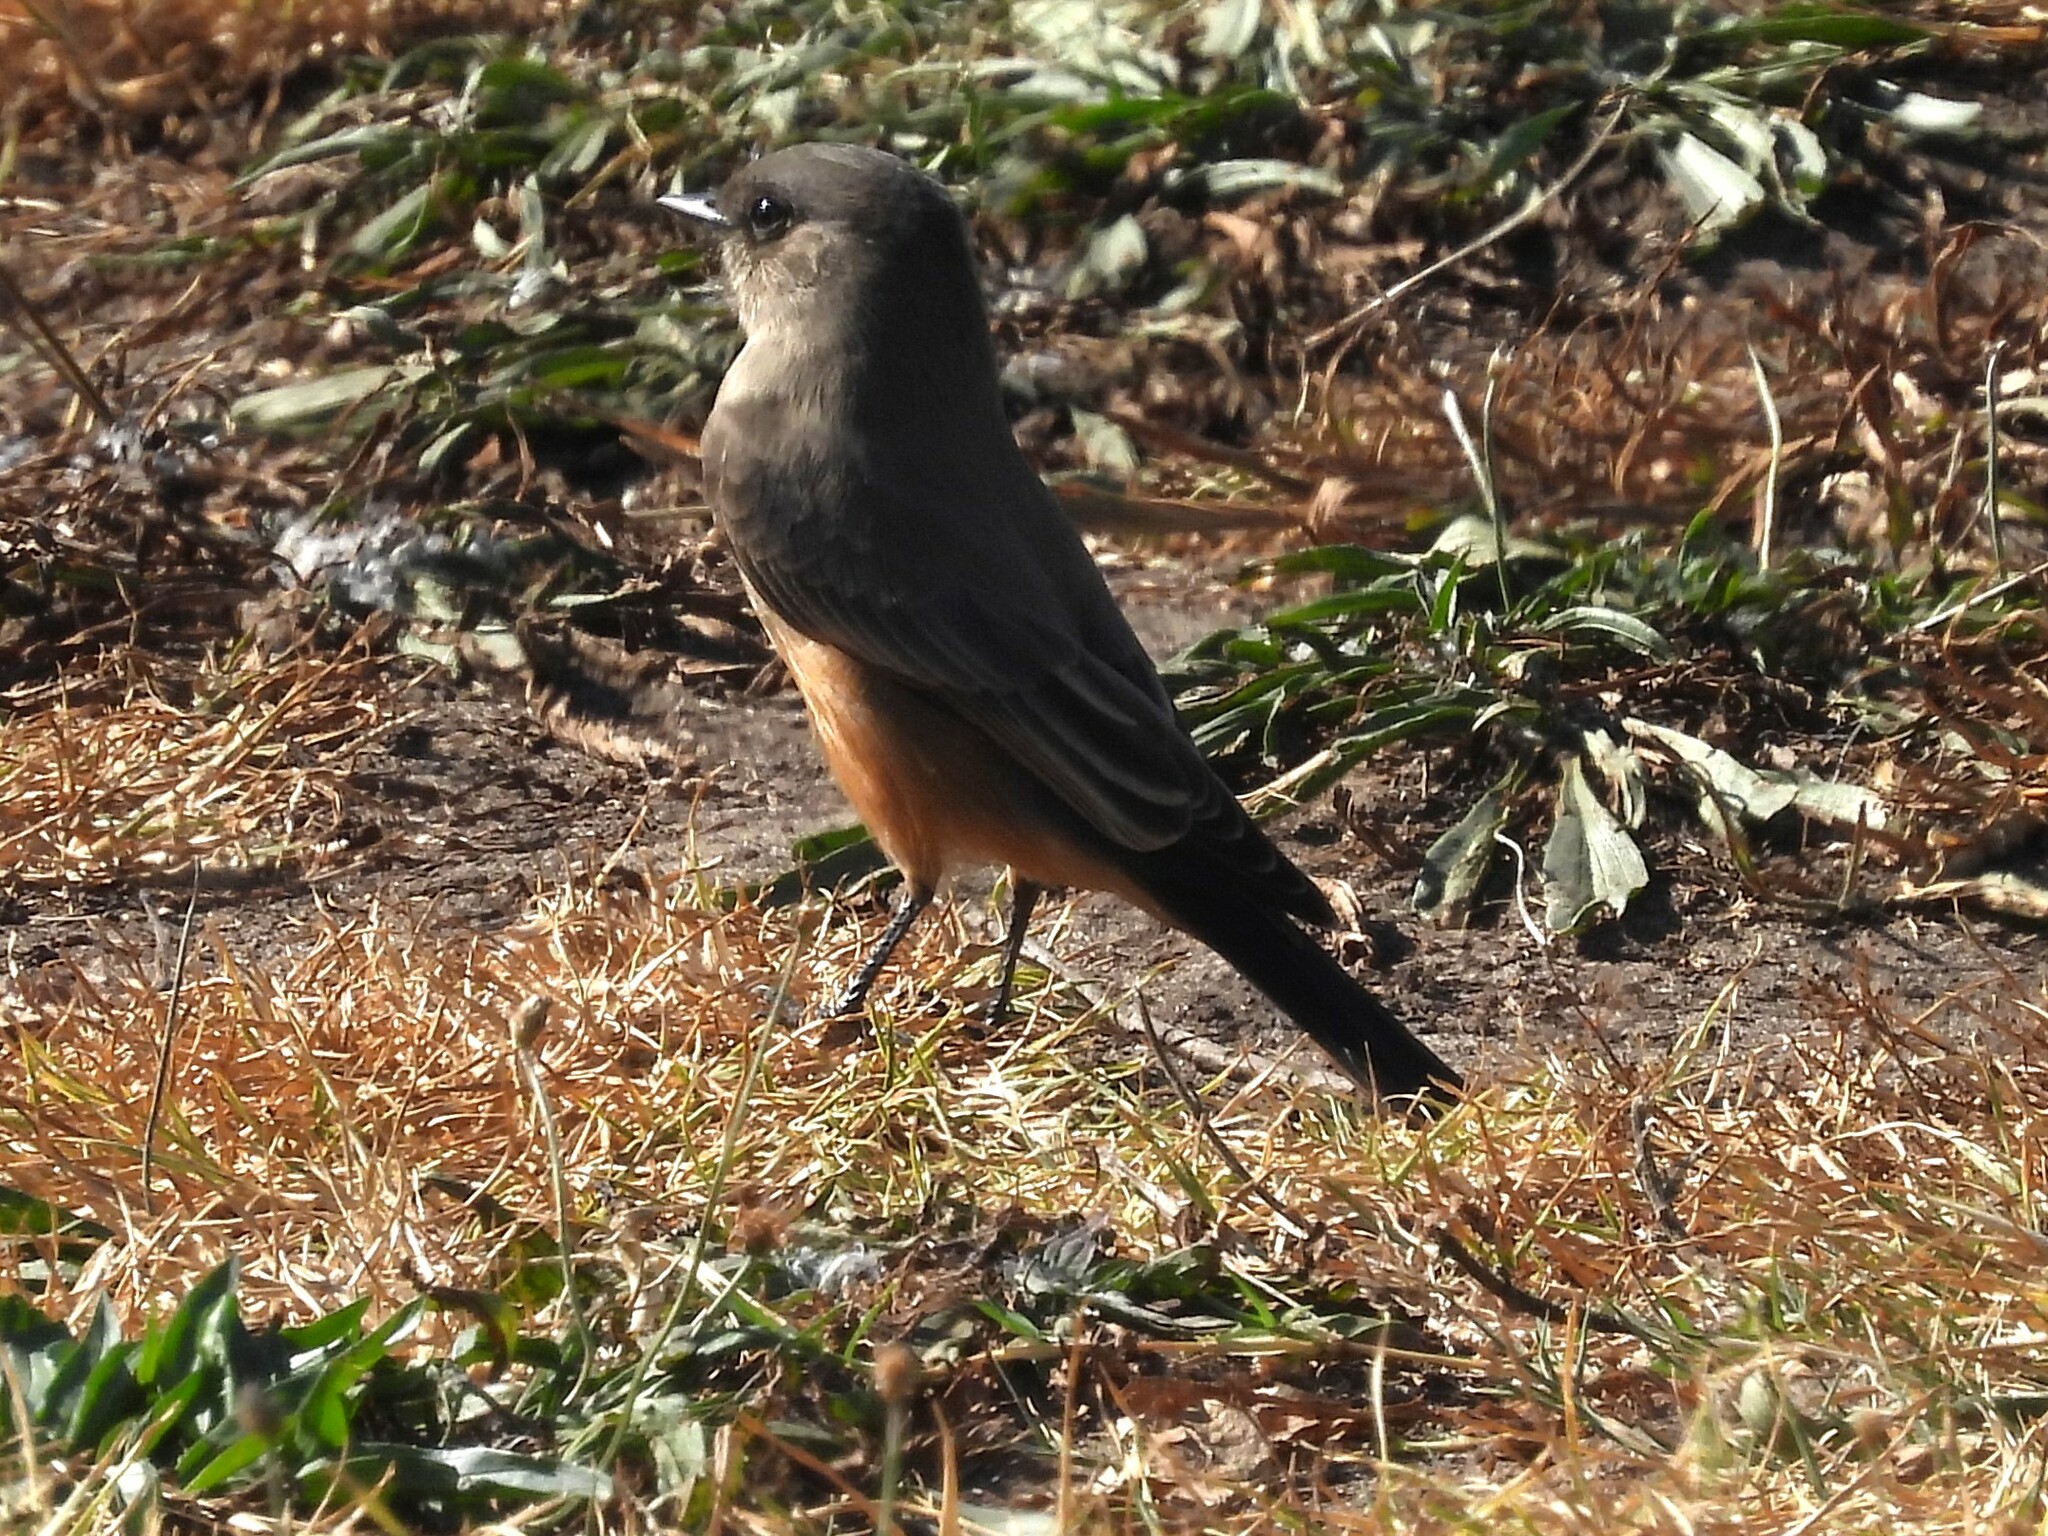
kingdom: Animalia
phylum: Chordata
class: Aves
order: Passeriformes
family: Tyrannidae
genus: Sayornis
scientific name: Sayornis saya
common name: Say's phoebe
